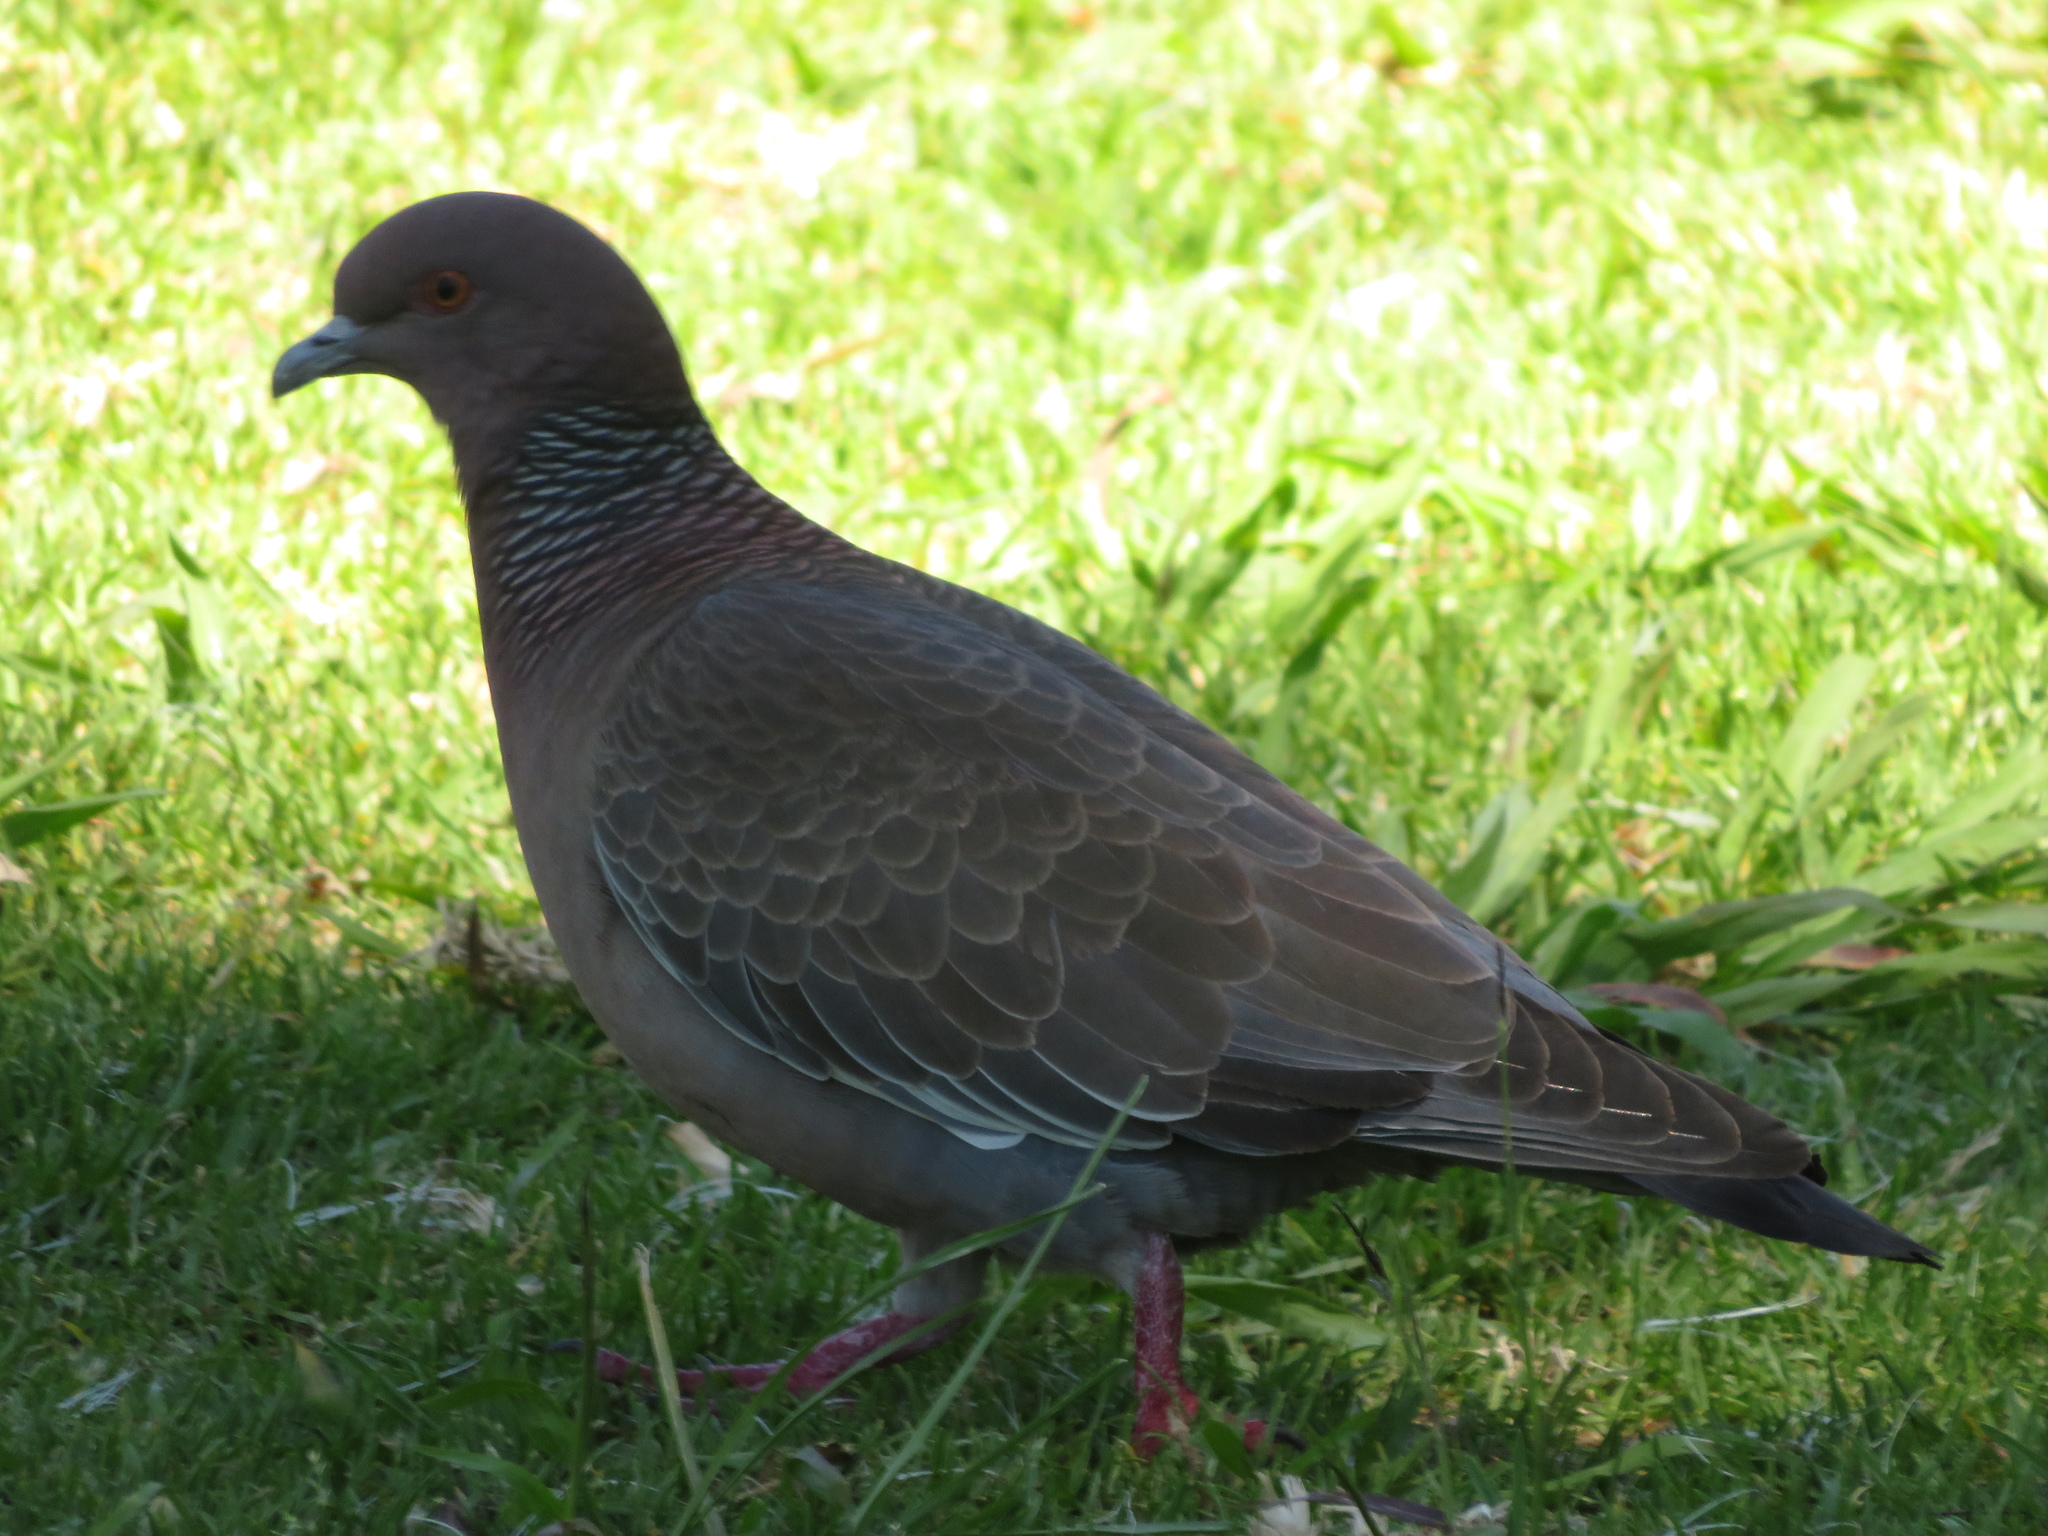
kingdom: Animalia
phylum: Chordata
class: Aves
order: Columbiformes
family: Columbidae
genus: Patagioenas
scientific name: Patagioenas picazuro
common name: Picazuro pigeon
